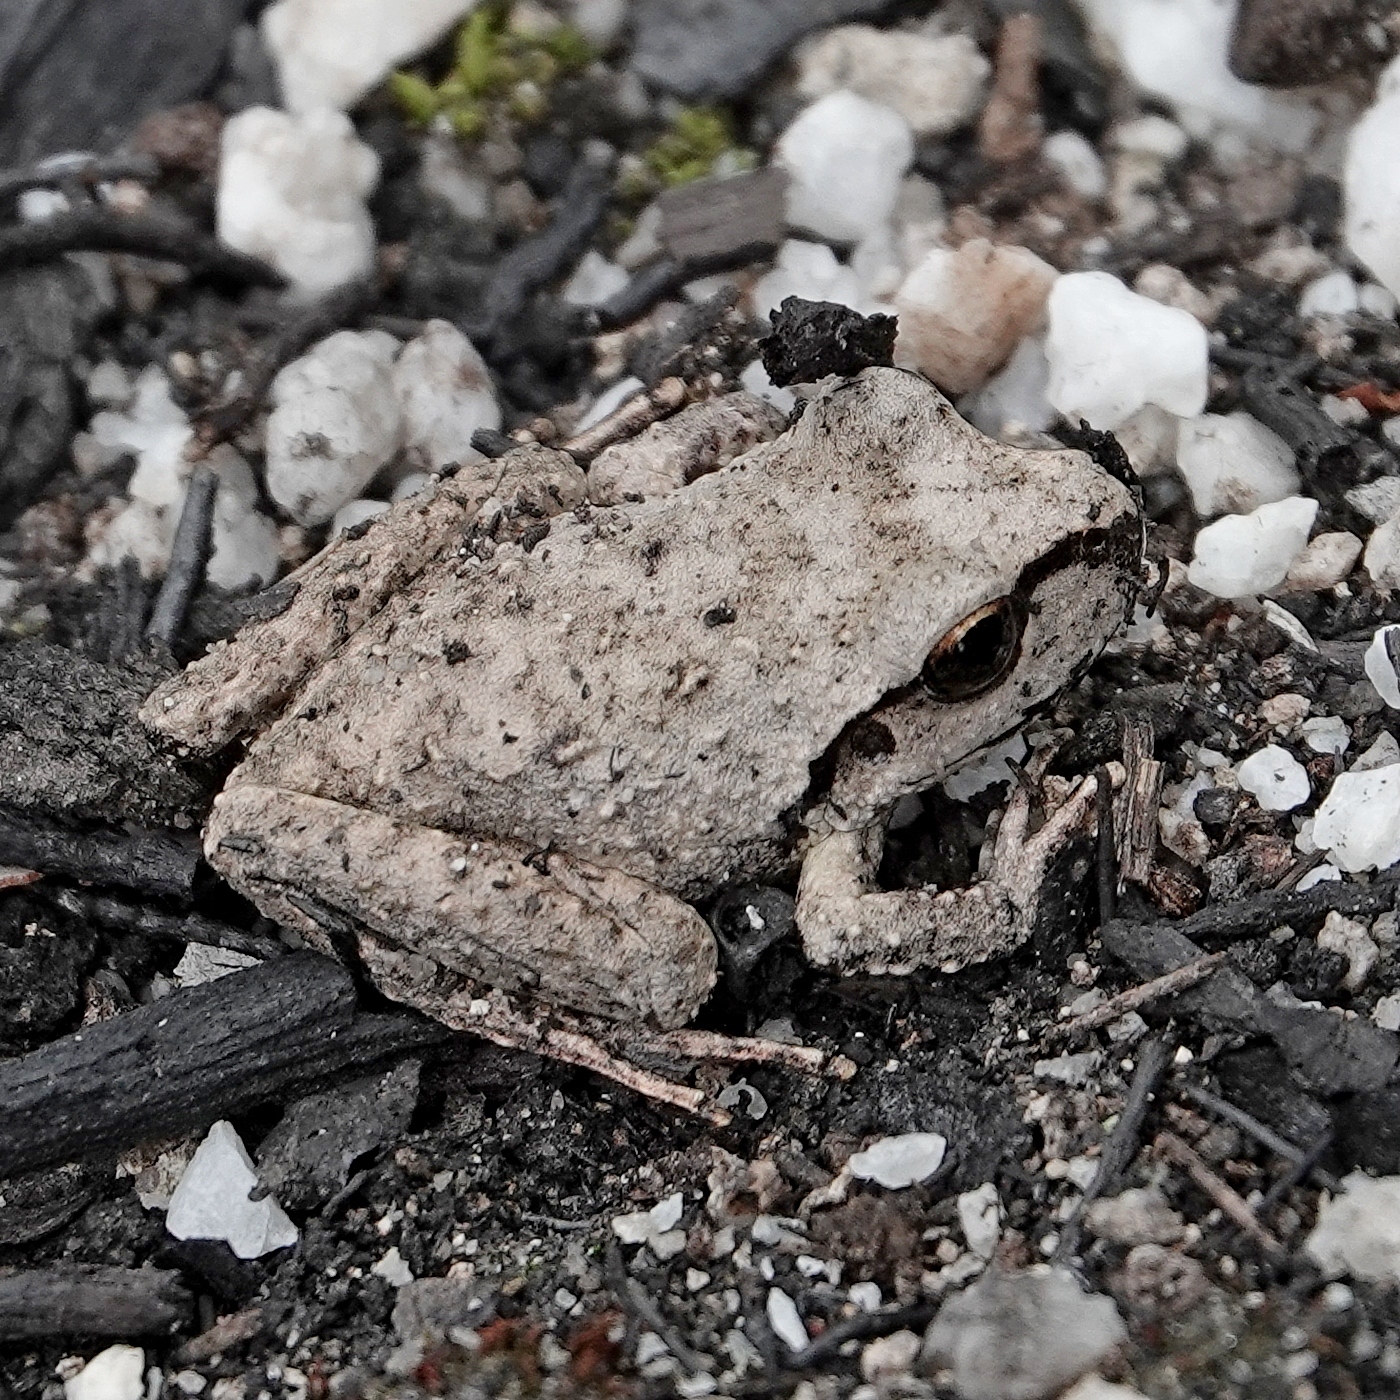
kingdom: Animalia
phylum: Chordata
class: Amphibia
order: Anura
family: Pelodryadidae
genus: Ranoidea
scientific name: Ranoidea lesueurii
